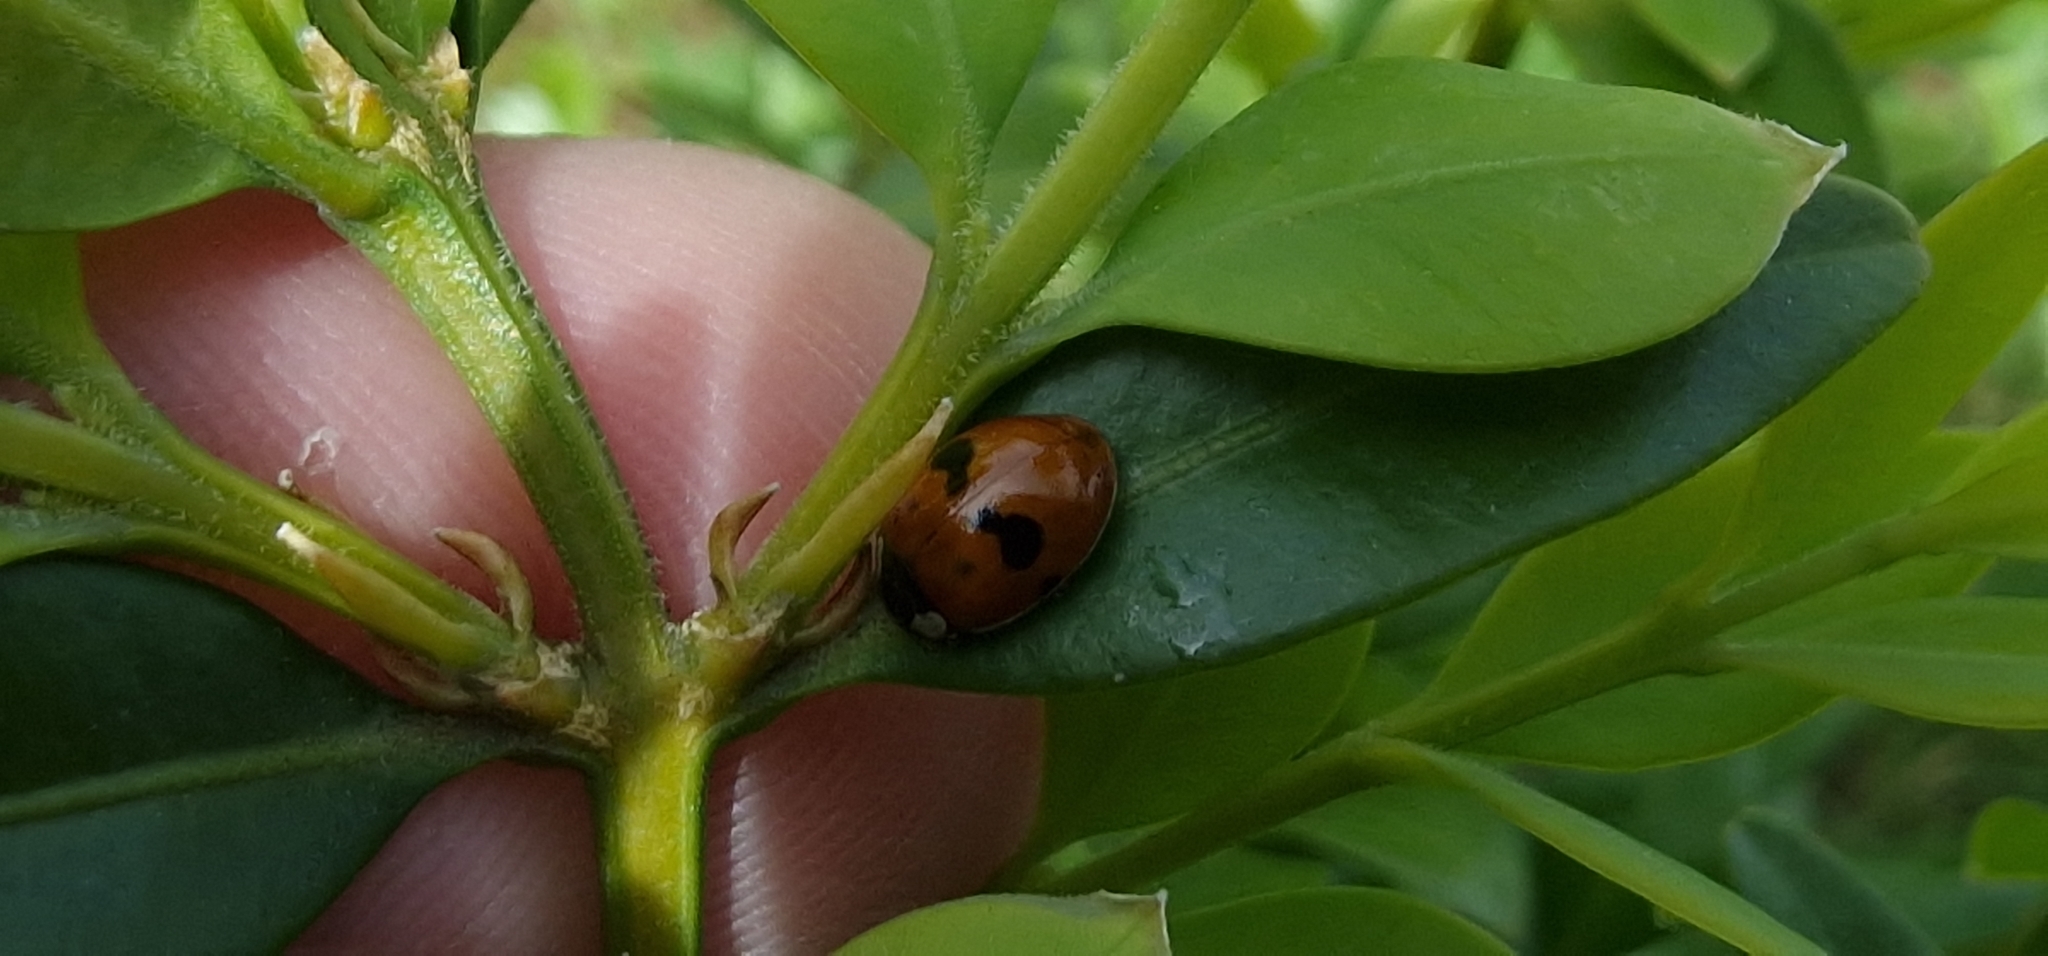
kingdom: Animalia
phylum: Arthropoda
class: Insecta
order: Coleoptera
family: Coccinellidae
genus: Adalia
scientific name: Adalia bipunctata
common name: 2-spot ladybird
